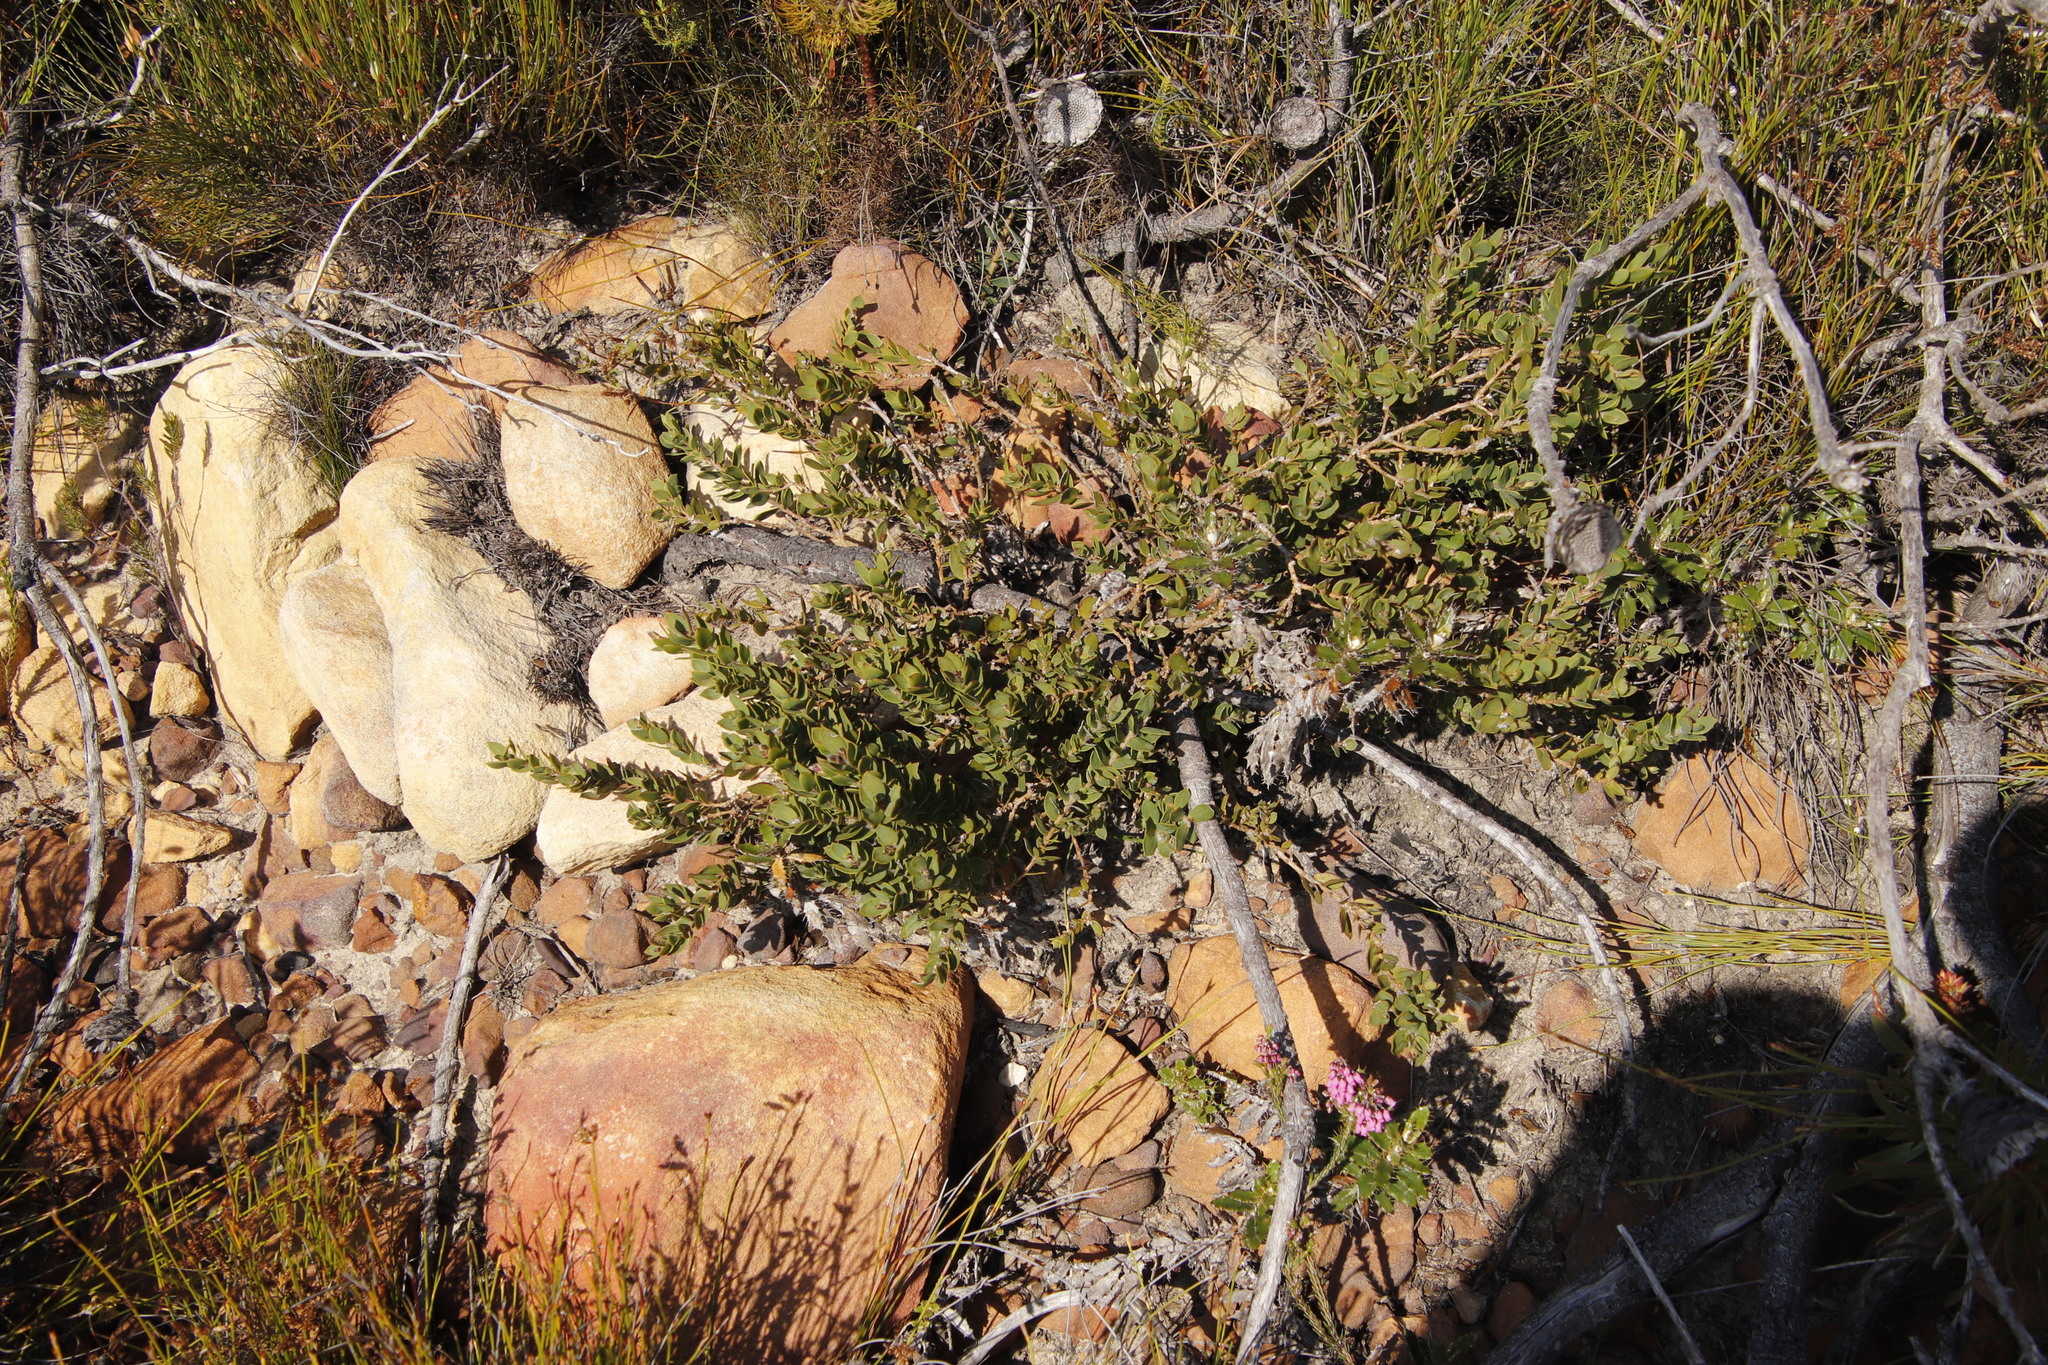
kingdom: Plantae
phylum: Tracheophyta
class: Magnoliopsida
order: Fabales
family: Fabaceae
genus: Liparia
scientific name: Liparia parva
